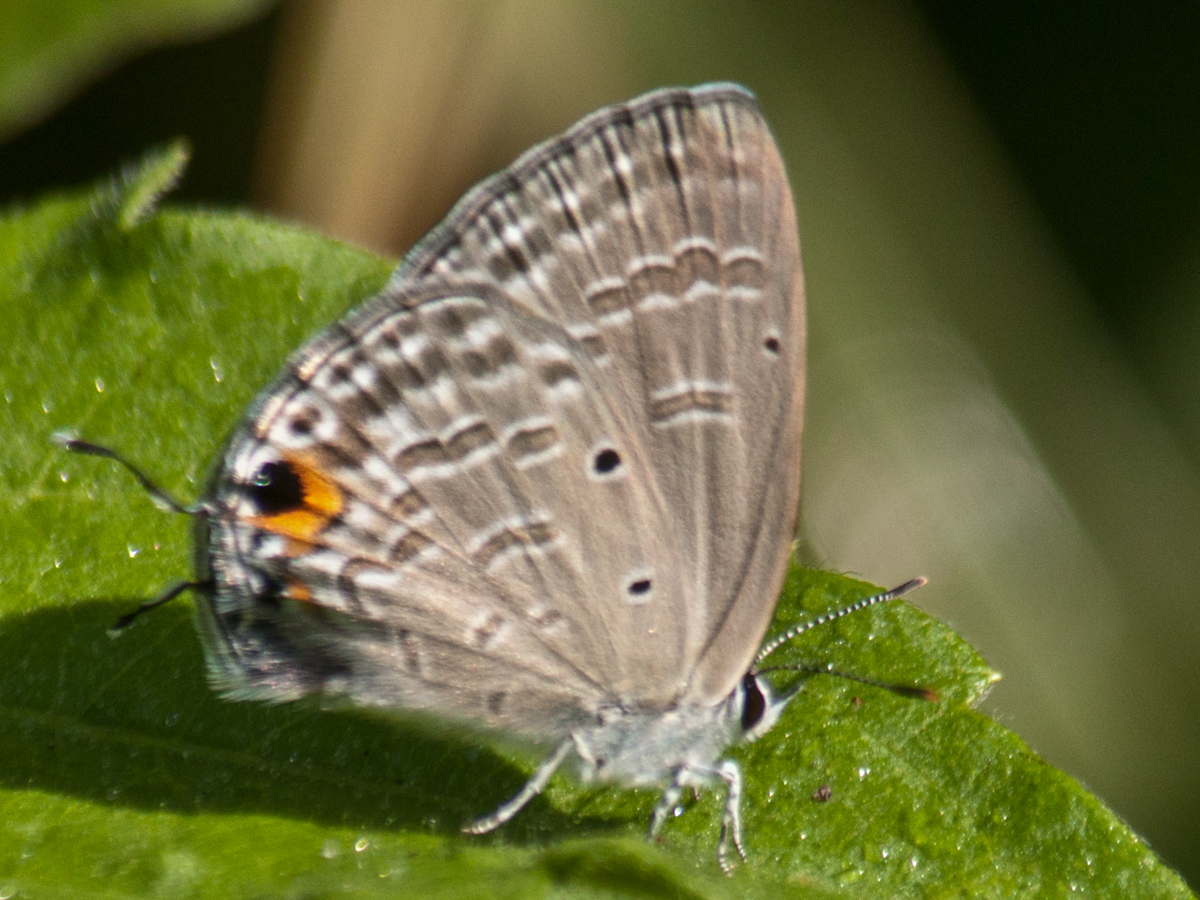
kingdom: Animalia
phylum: Arthropoda
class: Insecta
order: Lepidoptera
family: Lycaenidae
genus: Catochrysops
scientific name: Catochrysops strabo
